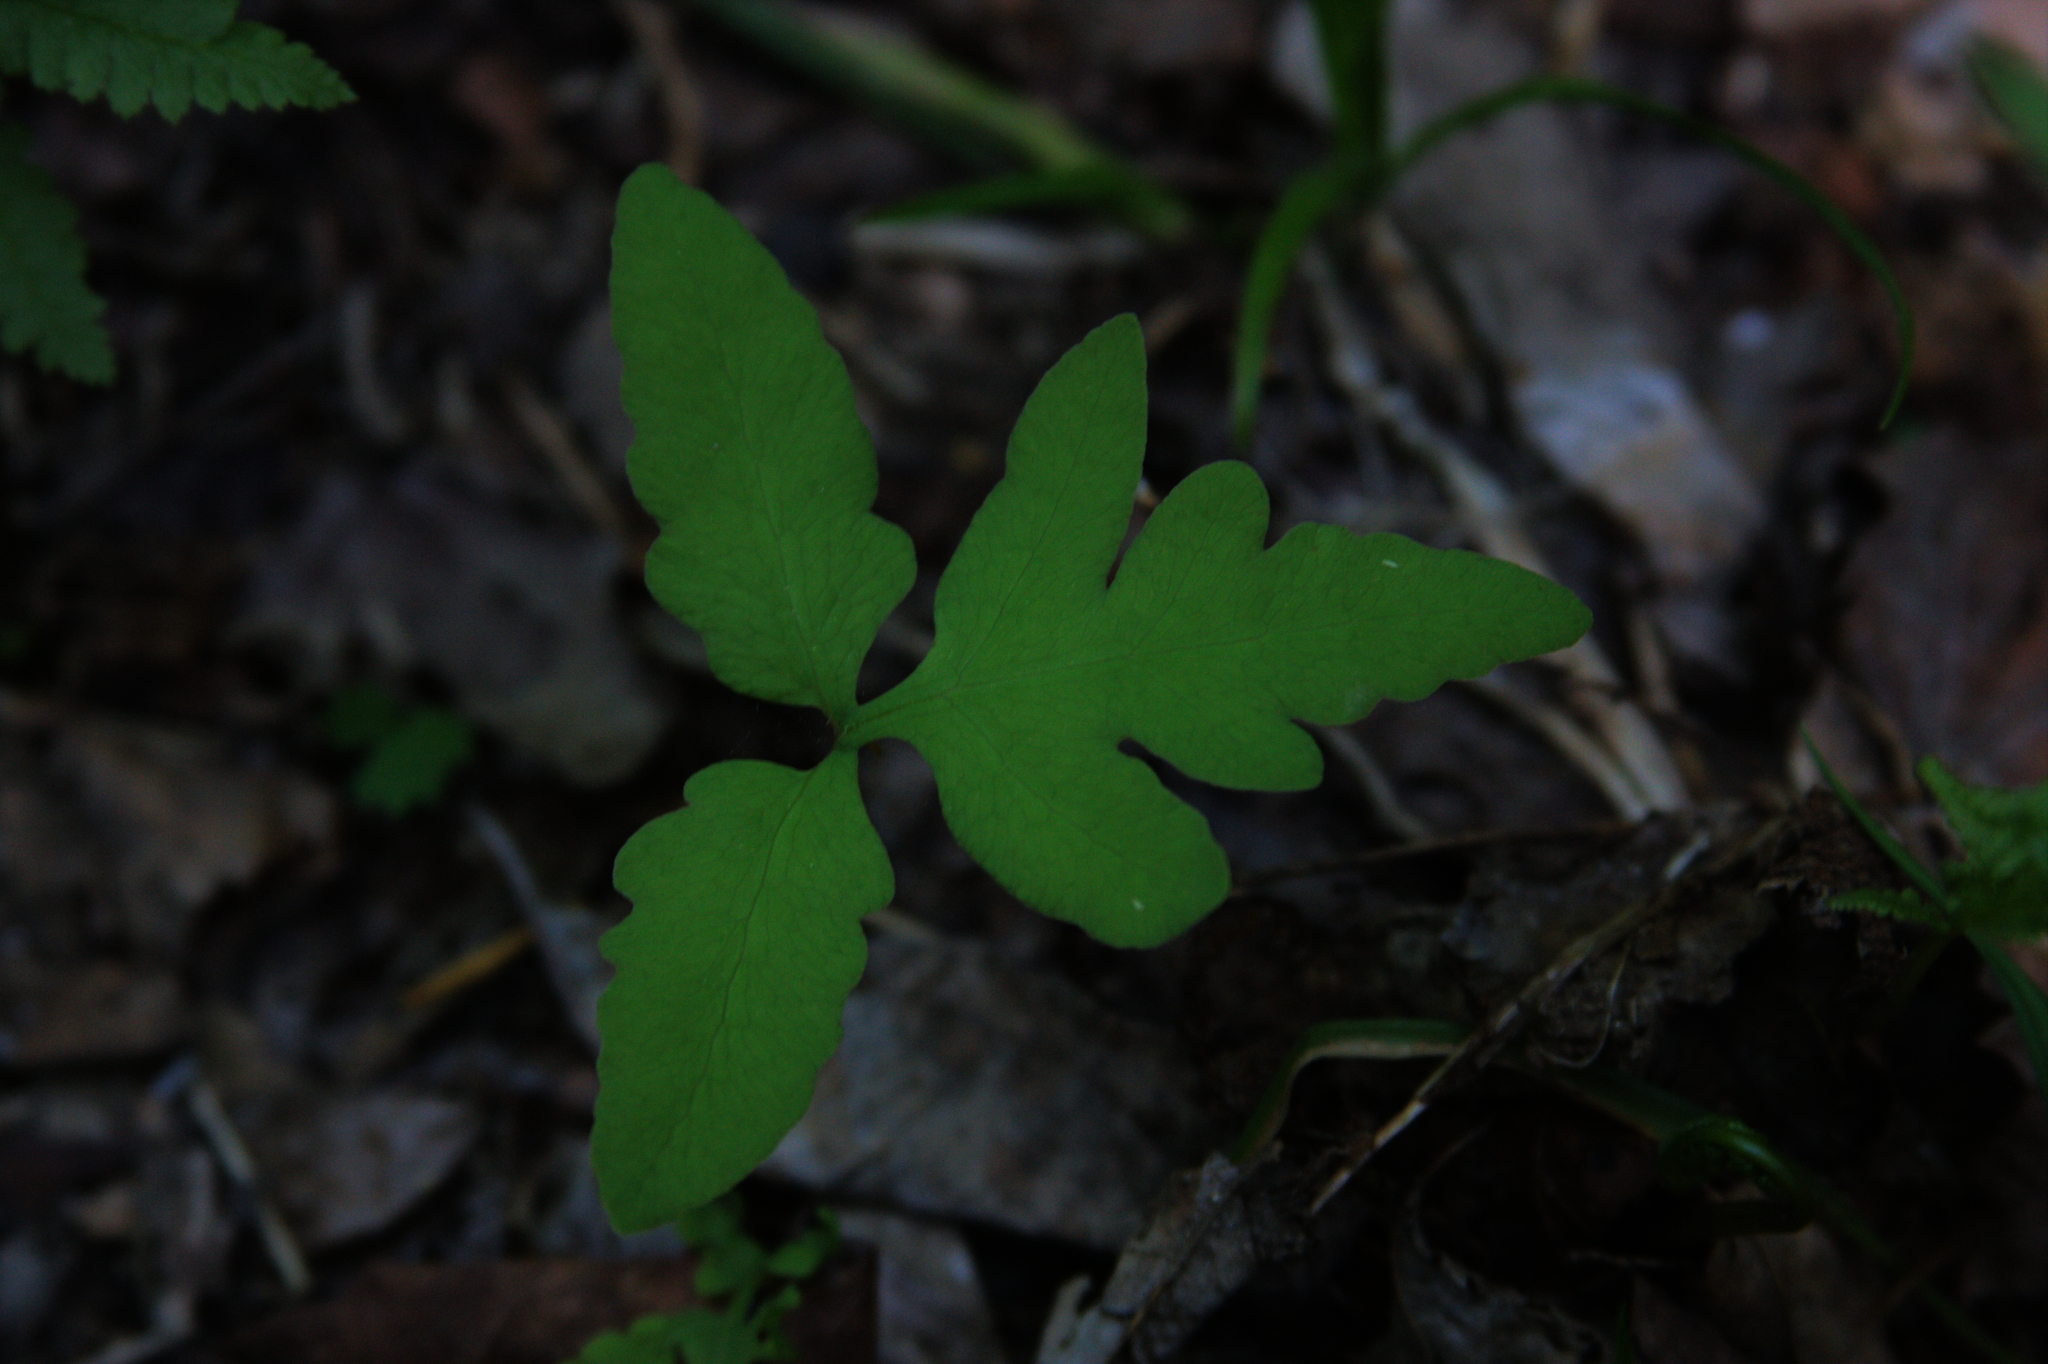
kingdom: Plantae
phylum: Tracheophyta
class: Polypodiopsida
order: Polypodiales
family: Onocleaceae
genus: Onoclea
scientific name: Onoclea sensibilis
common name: Sensitive fern
